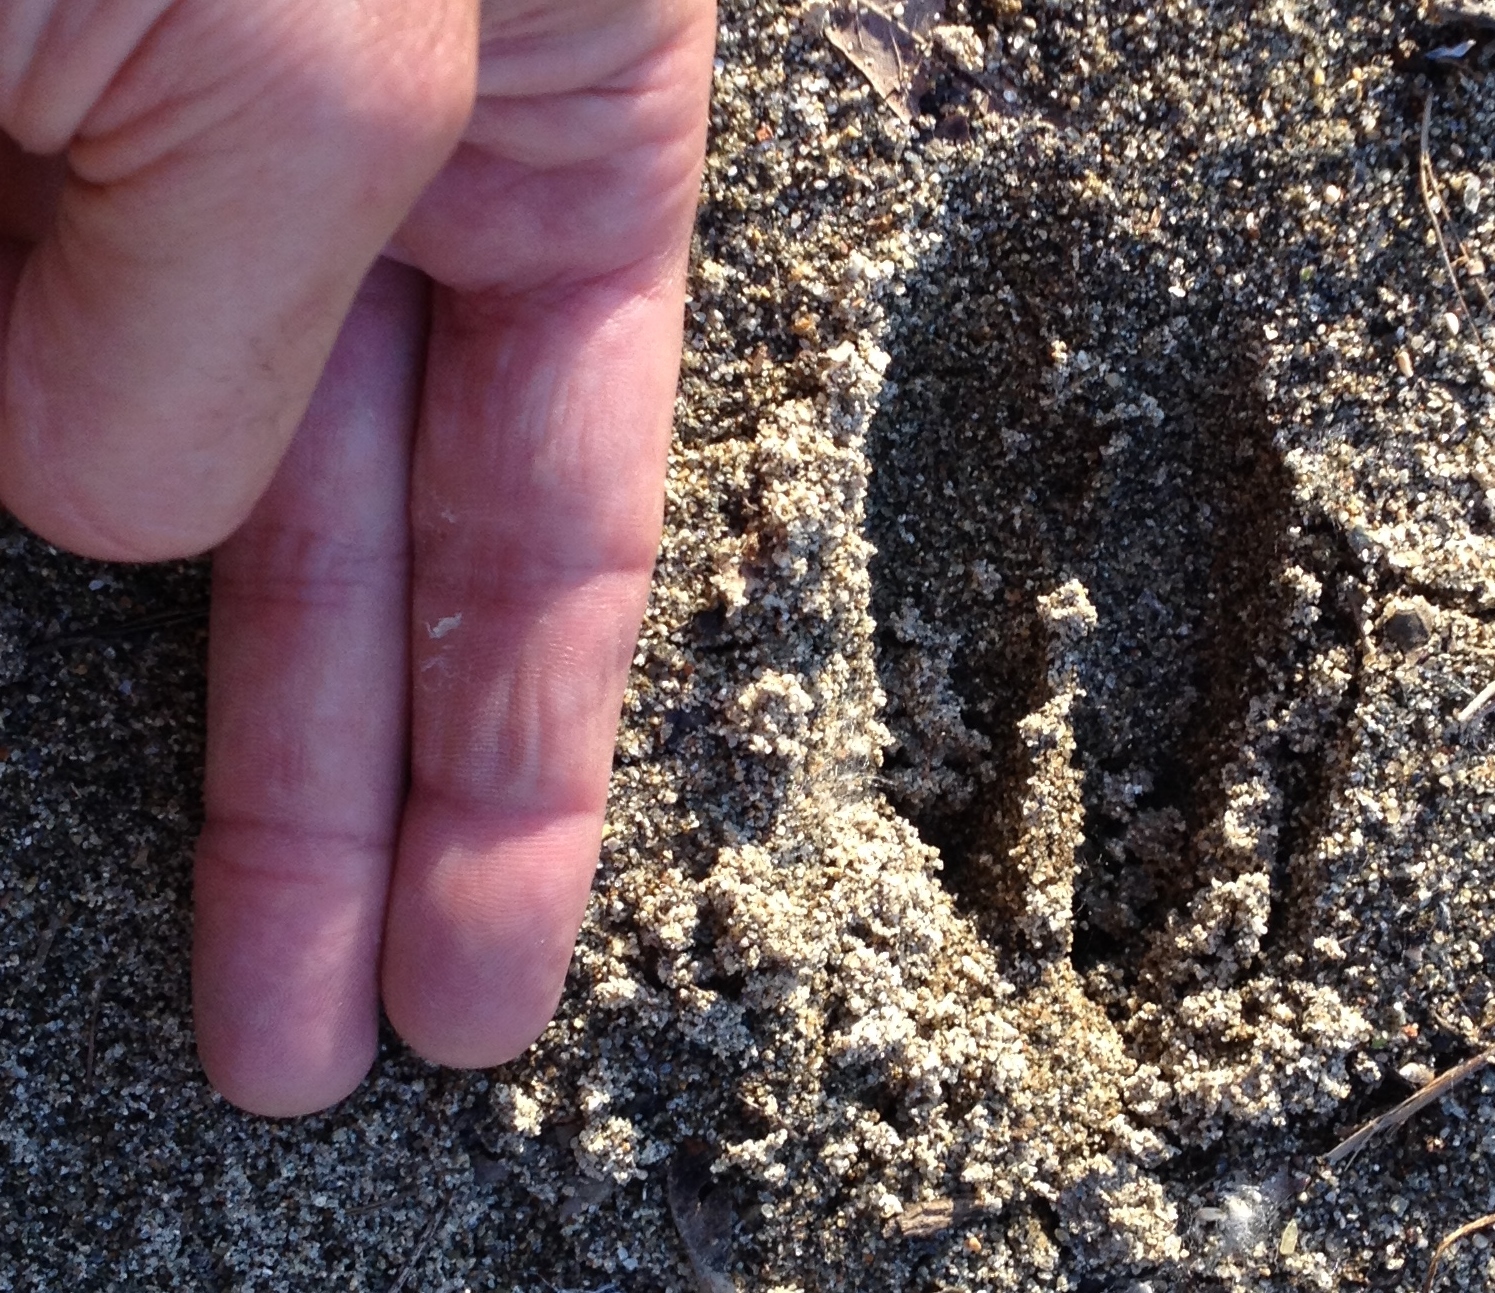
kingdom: Animalia
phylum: Chordata
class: Mammalia
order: Artiodactyla
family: Cervidae
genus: Odocoileus
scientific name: Odocoileus hemionus
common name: Mule deer
